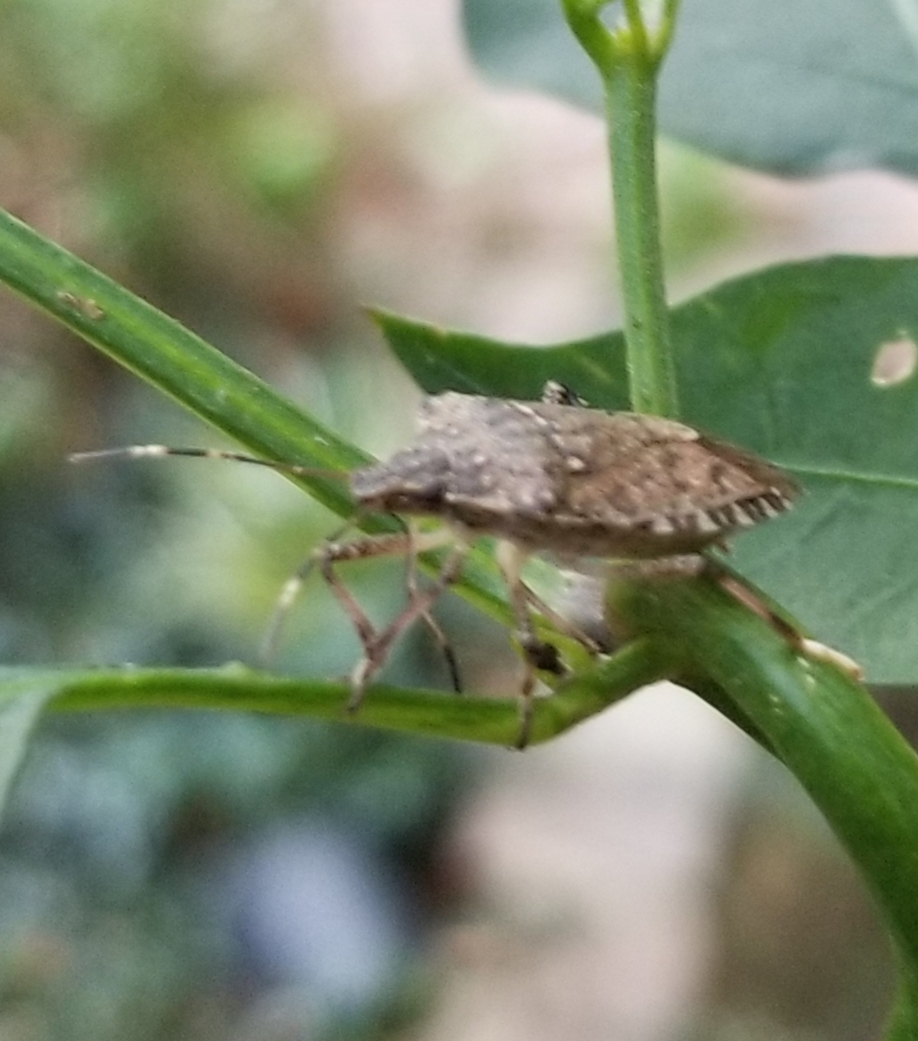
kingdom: Animalia
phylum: Arthropoda
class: Insecta
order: Hemiptera
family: Pentatomidae
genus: Halyomorpha
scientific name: Halyomorpha halys
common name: Brown marmorated stink bug
